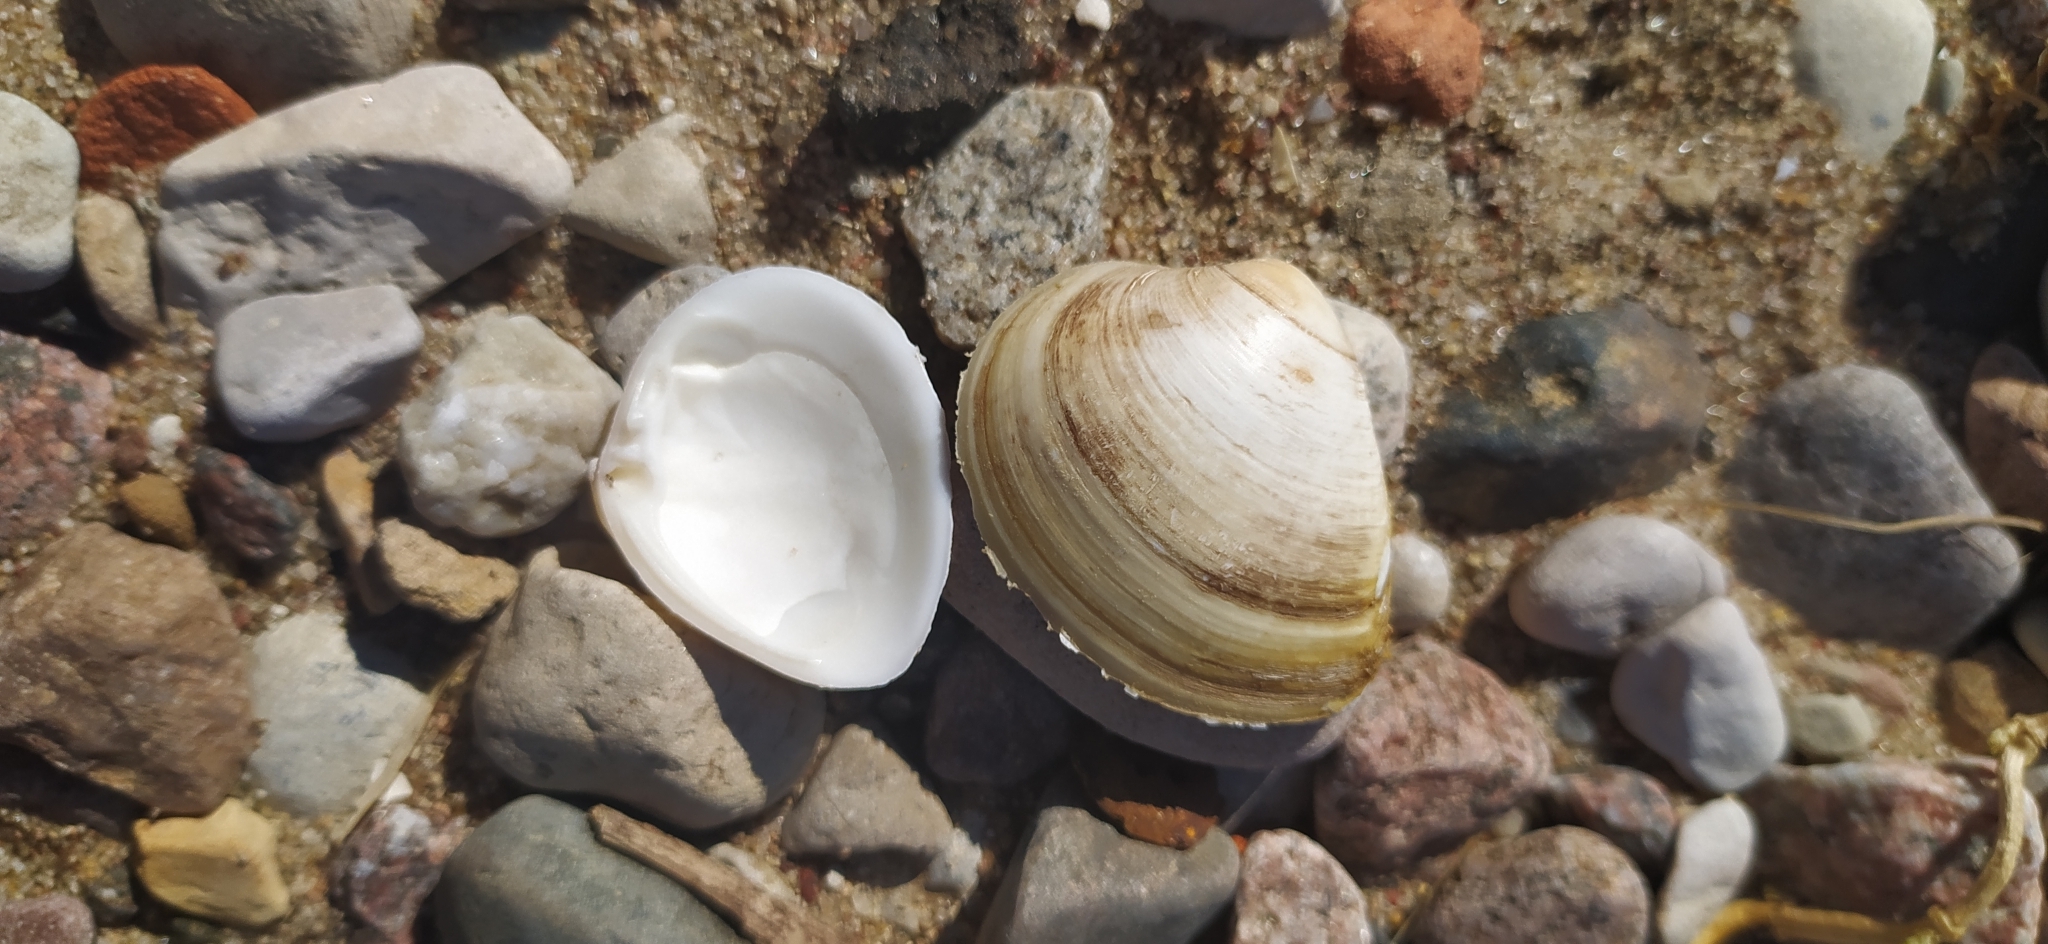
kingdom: Animalia
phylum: Mollusca
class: Bivalvia
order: Venerida
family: Mactridae
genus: Rangia
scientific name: Rangia cuneata
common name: Atlantic rangia
